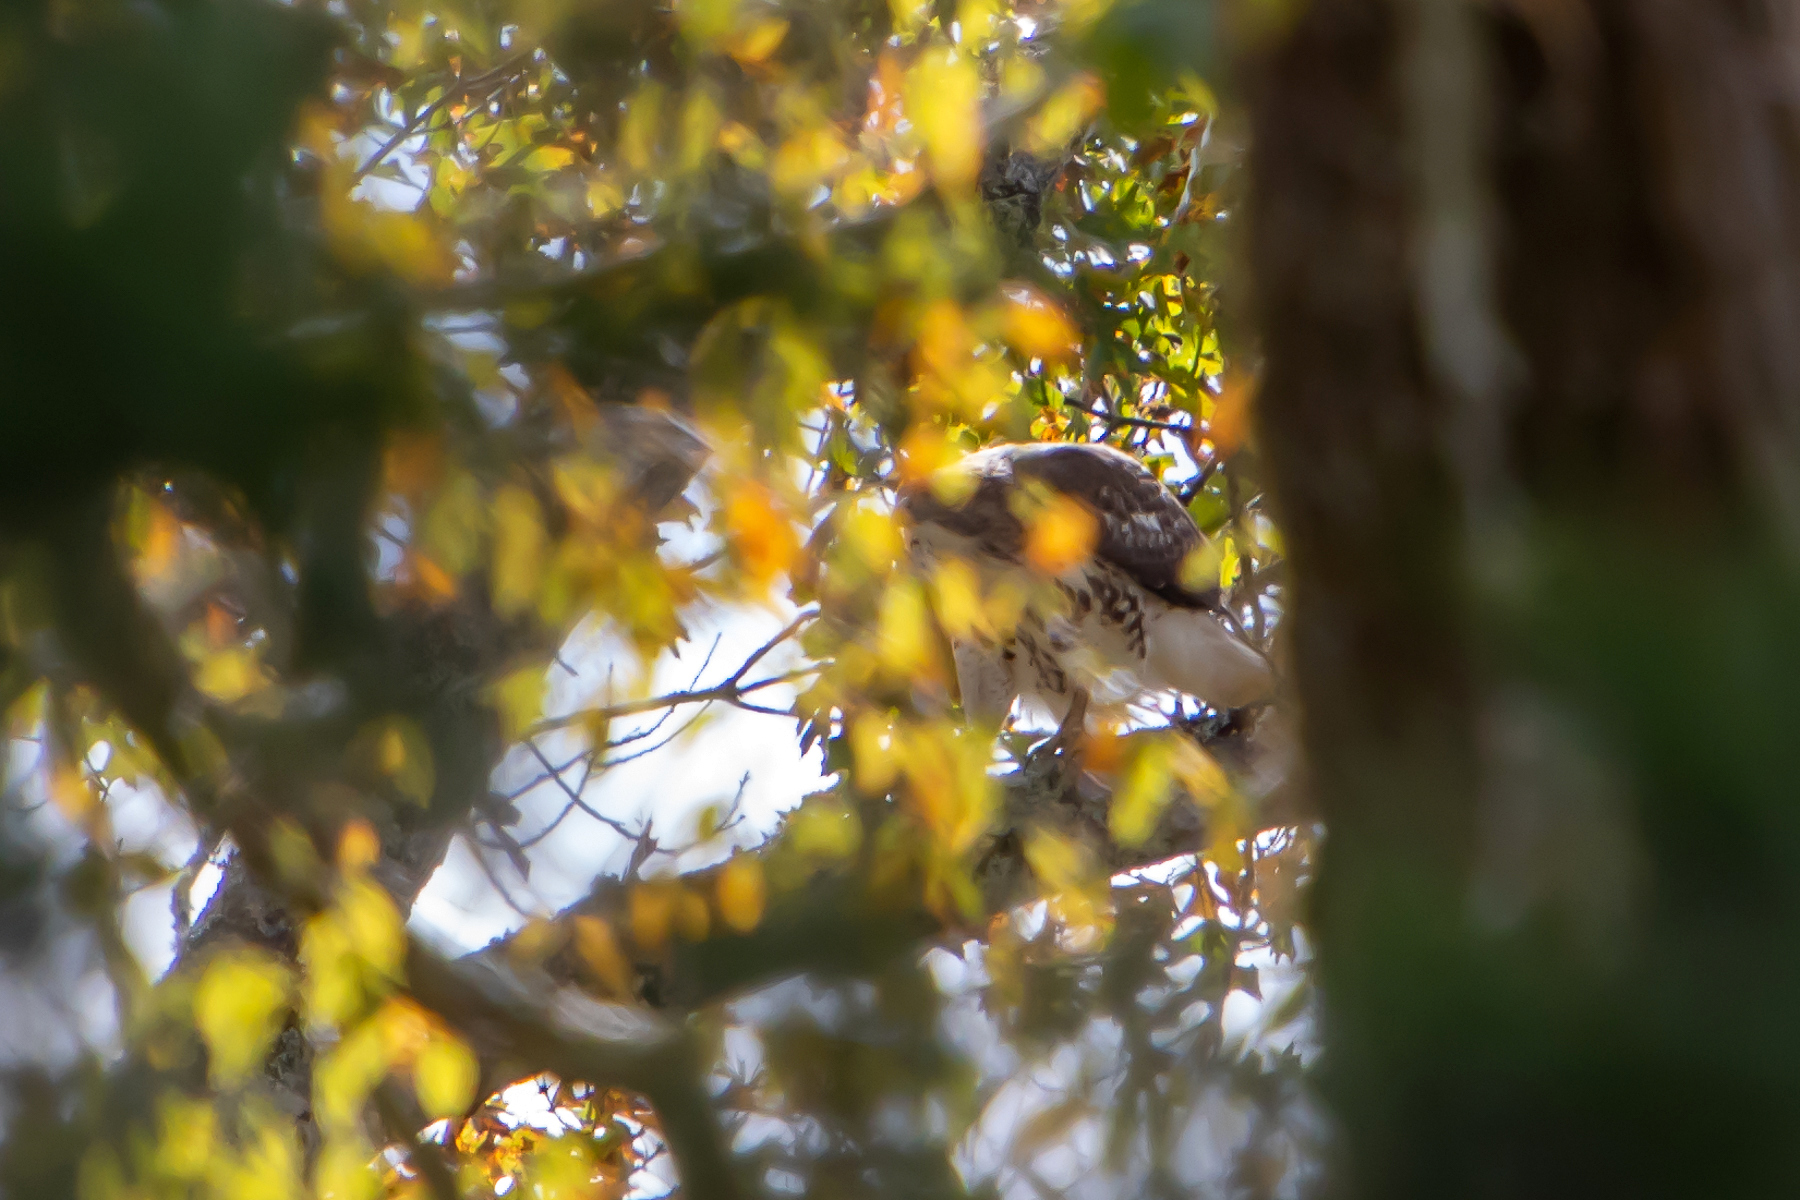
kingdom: Animalia
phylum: Chordata
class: Aves
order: Accipitriformes
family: Accipitridae
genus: Buteo
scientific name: Buteo jamaicensis
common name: Red-tailed hawk
